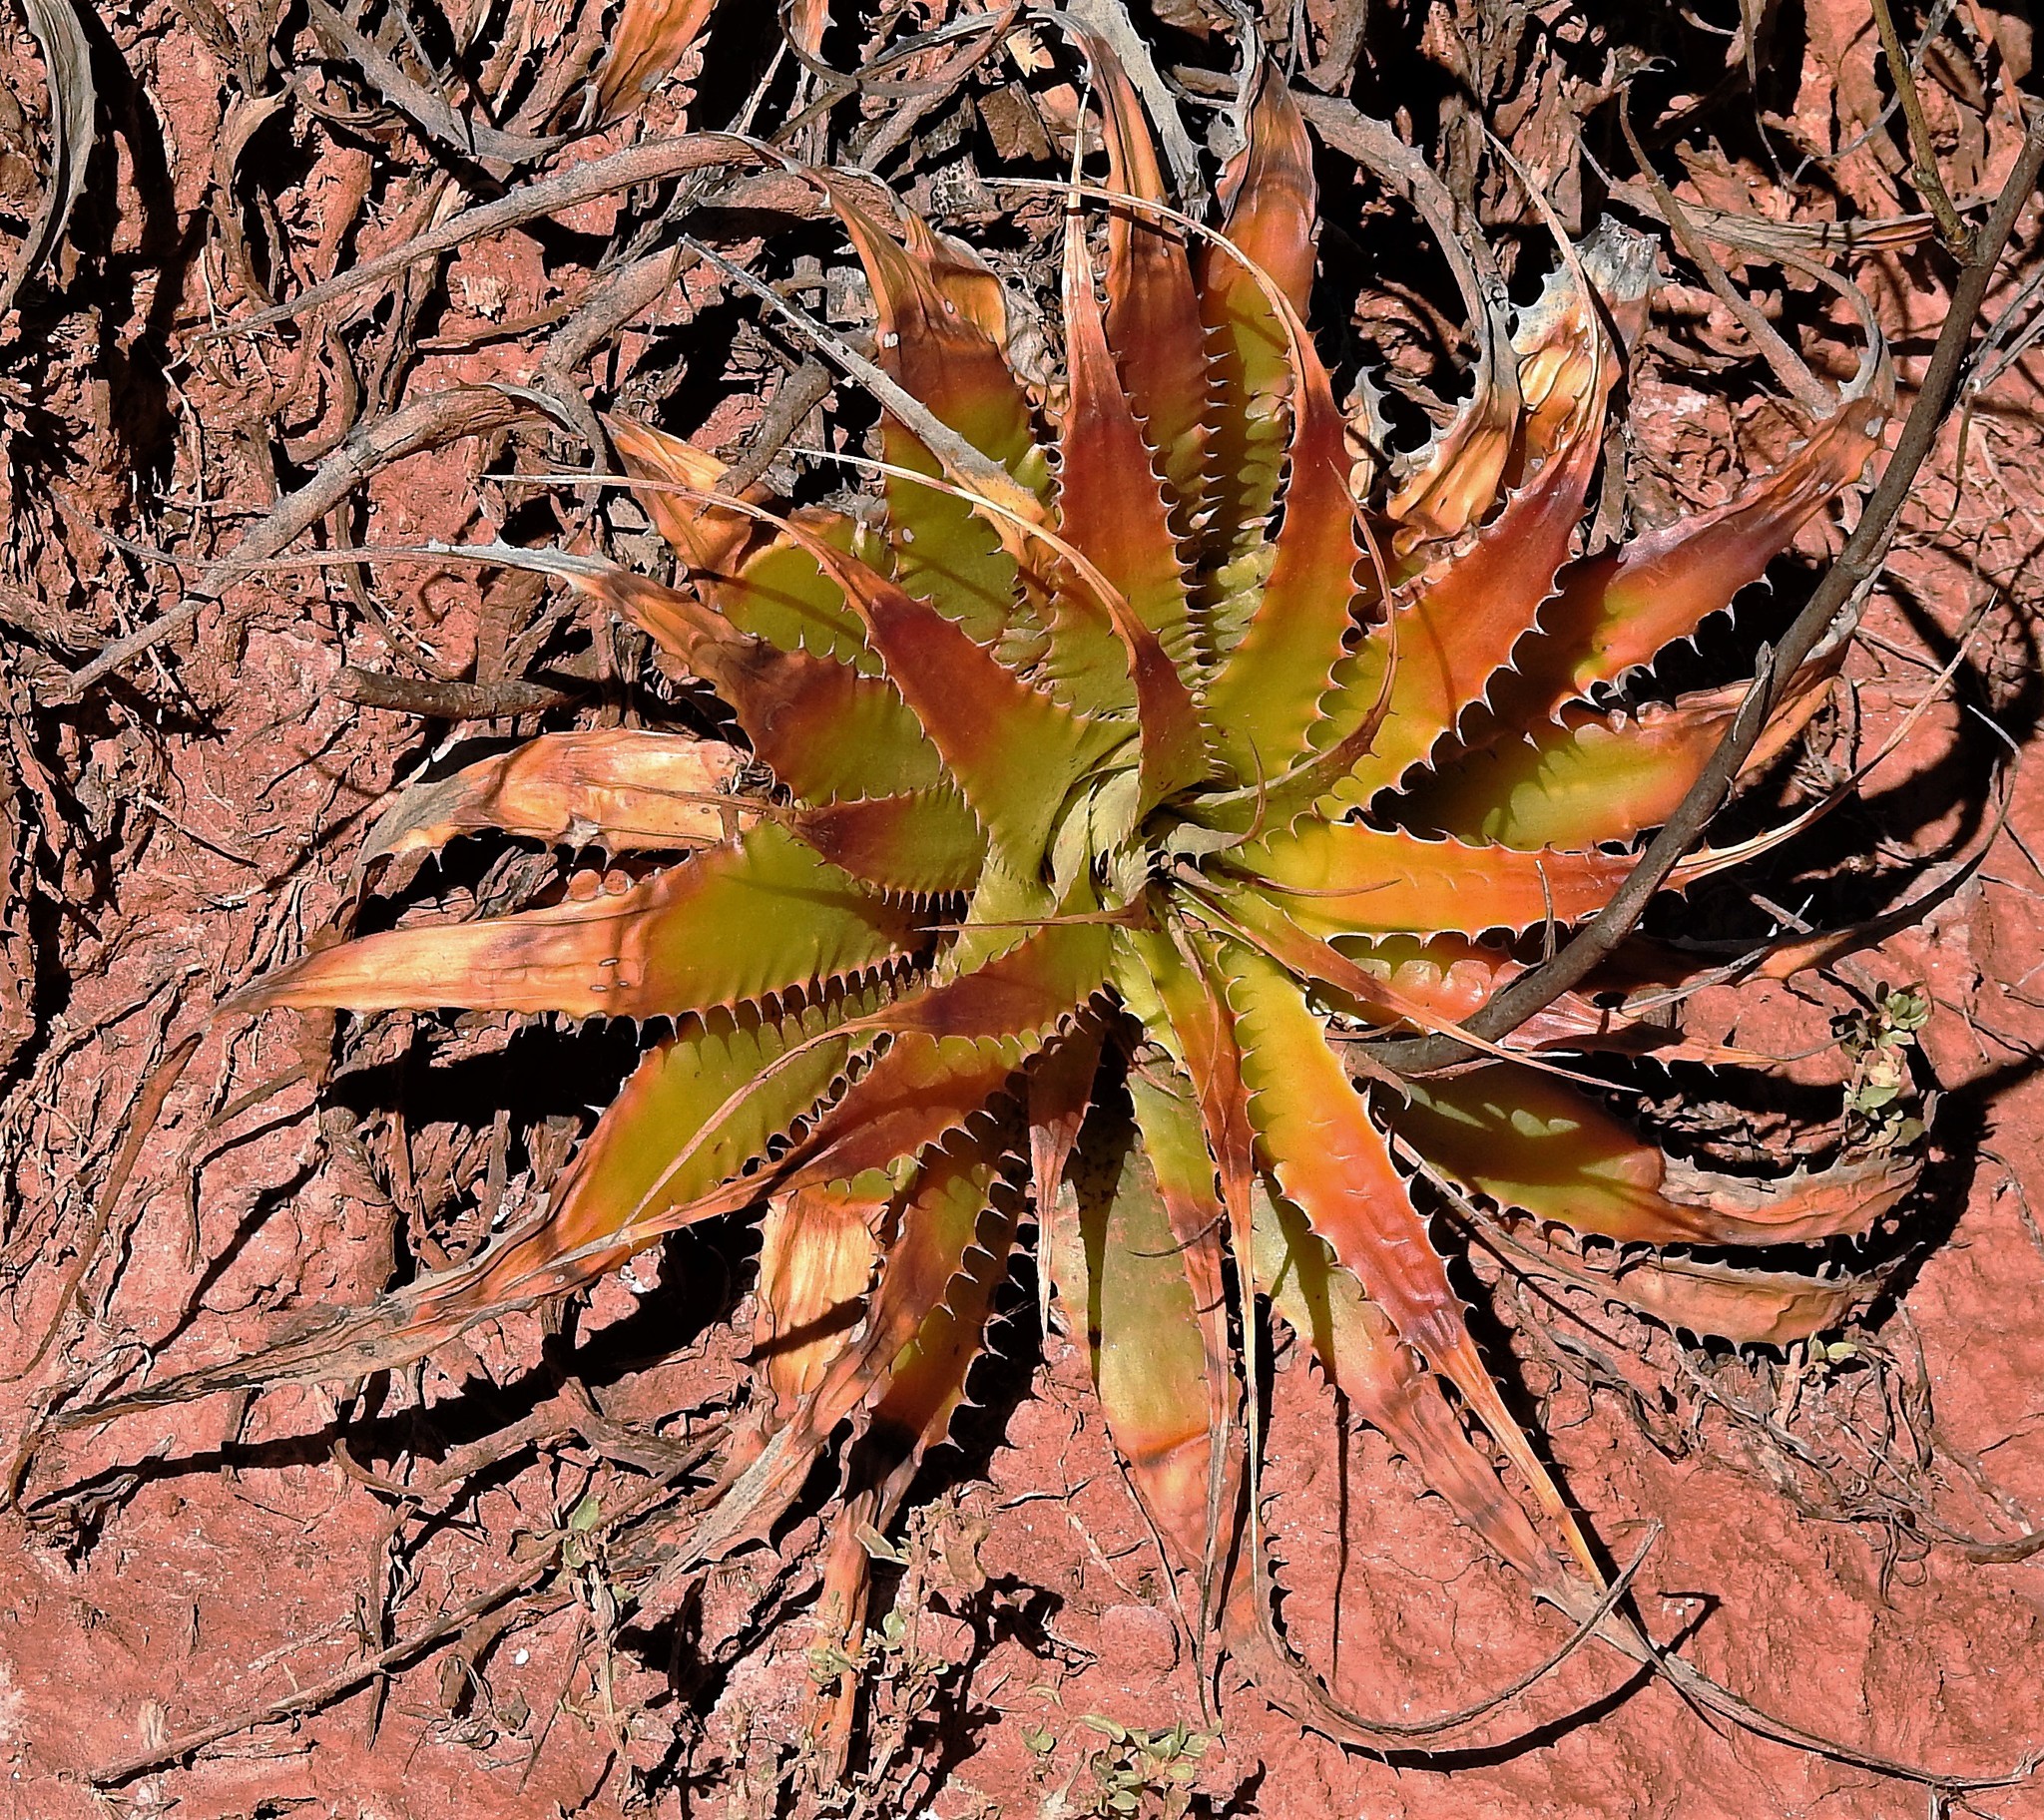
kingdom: Plantae
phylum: Tracheophyta
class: Liliopsida
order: Poales
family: Bromeliaceae
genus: Deuterocohnia
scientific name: Deuterocohnia longipetala
